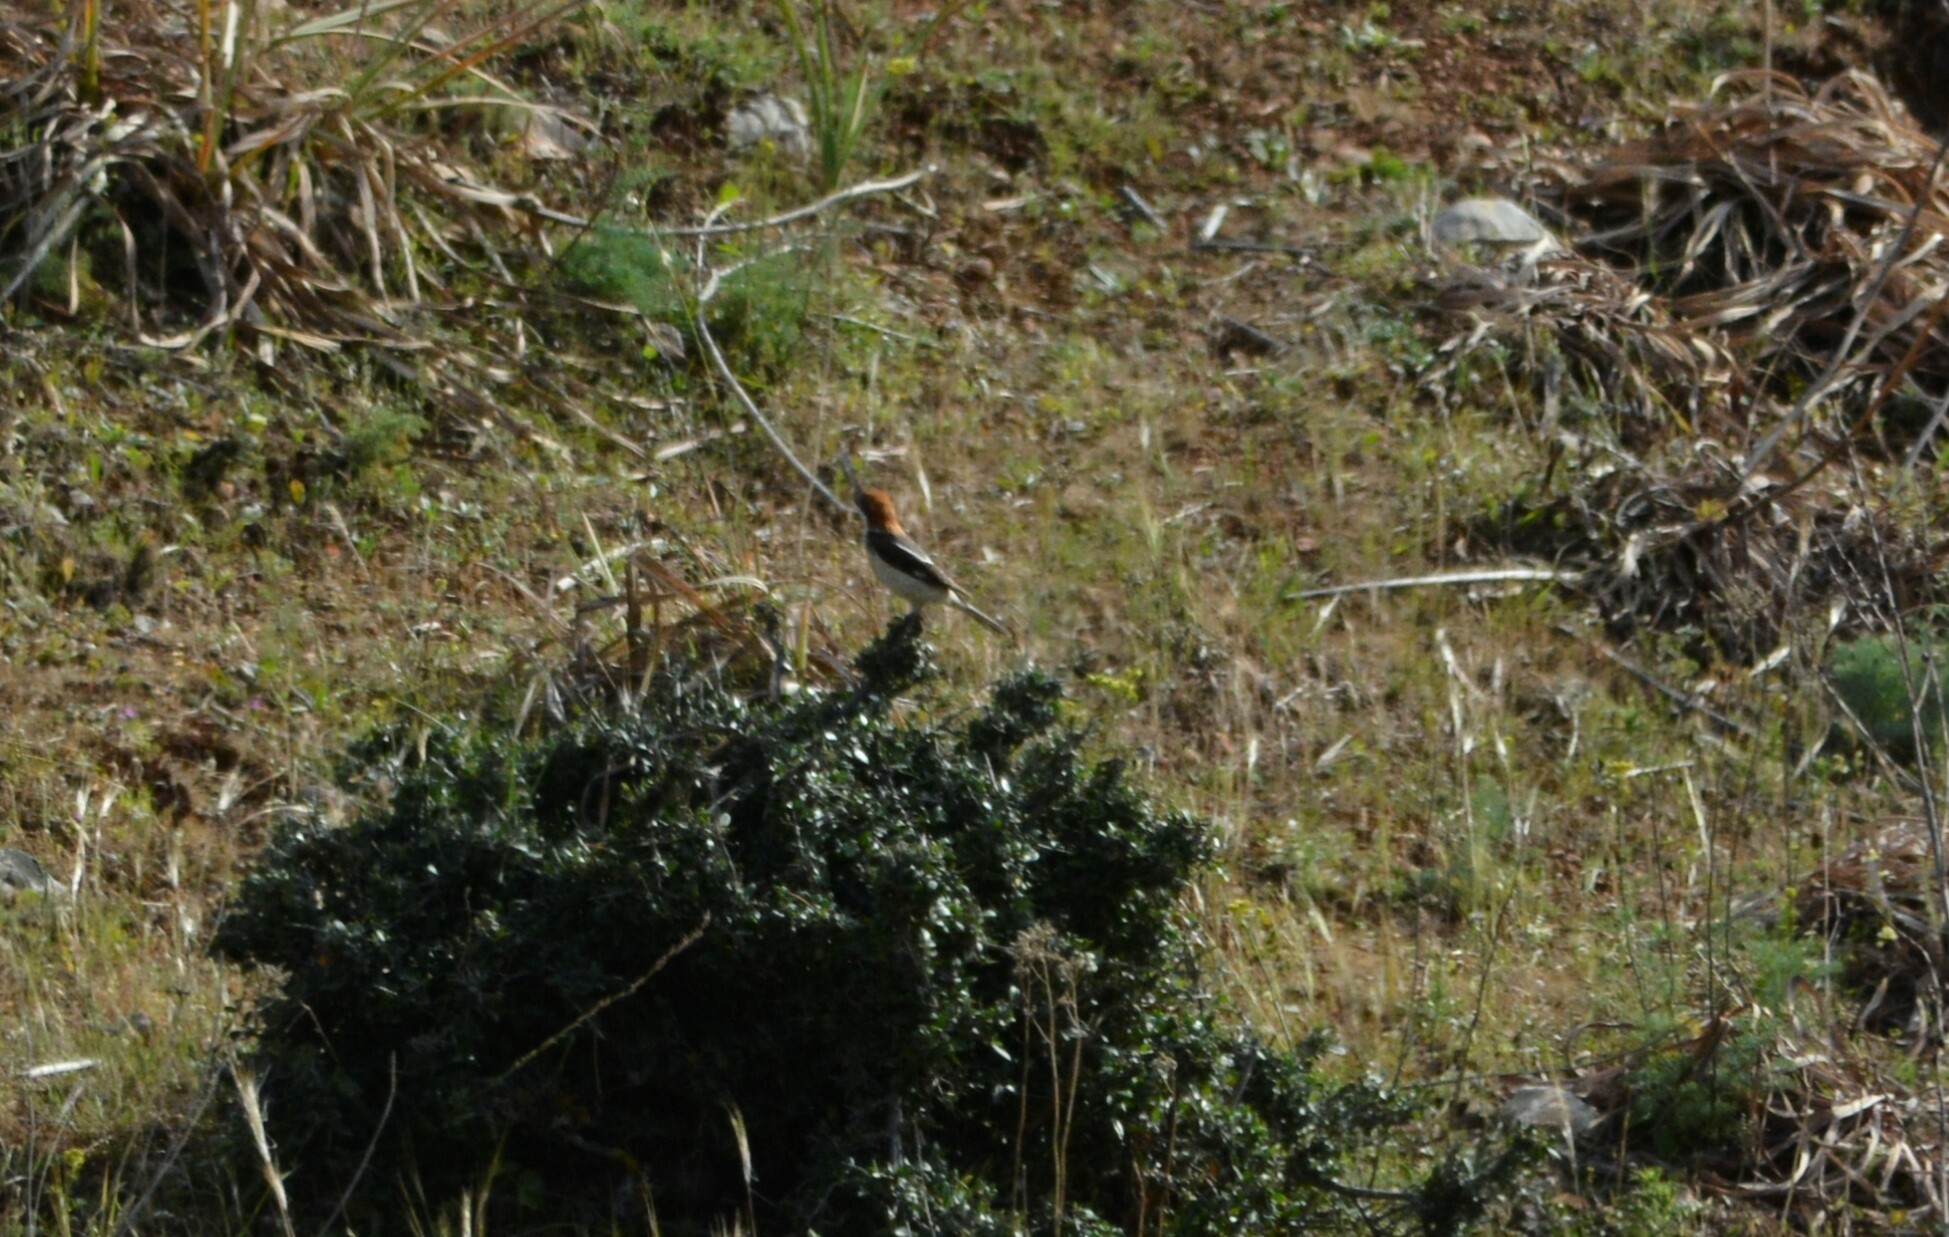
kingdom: Animalia
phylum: Chordata
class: Aves
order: Passeriformes
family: Laniidae
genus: Lanius
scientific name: Lanius senator
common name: Woodchat shrike
